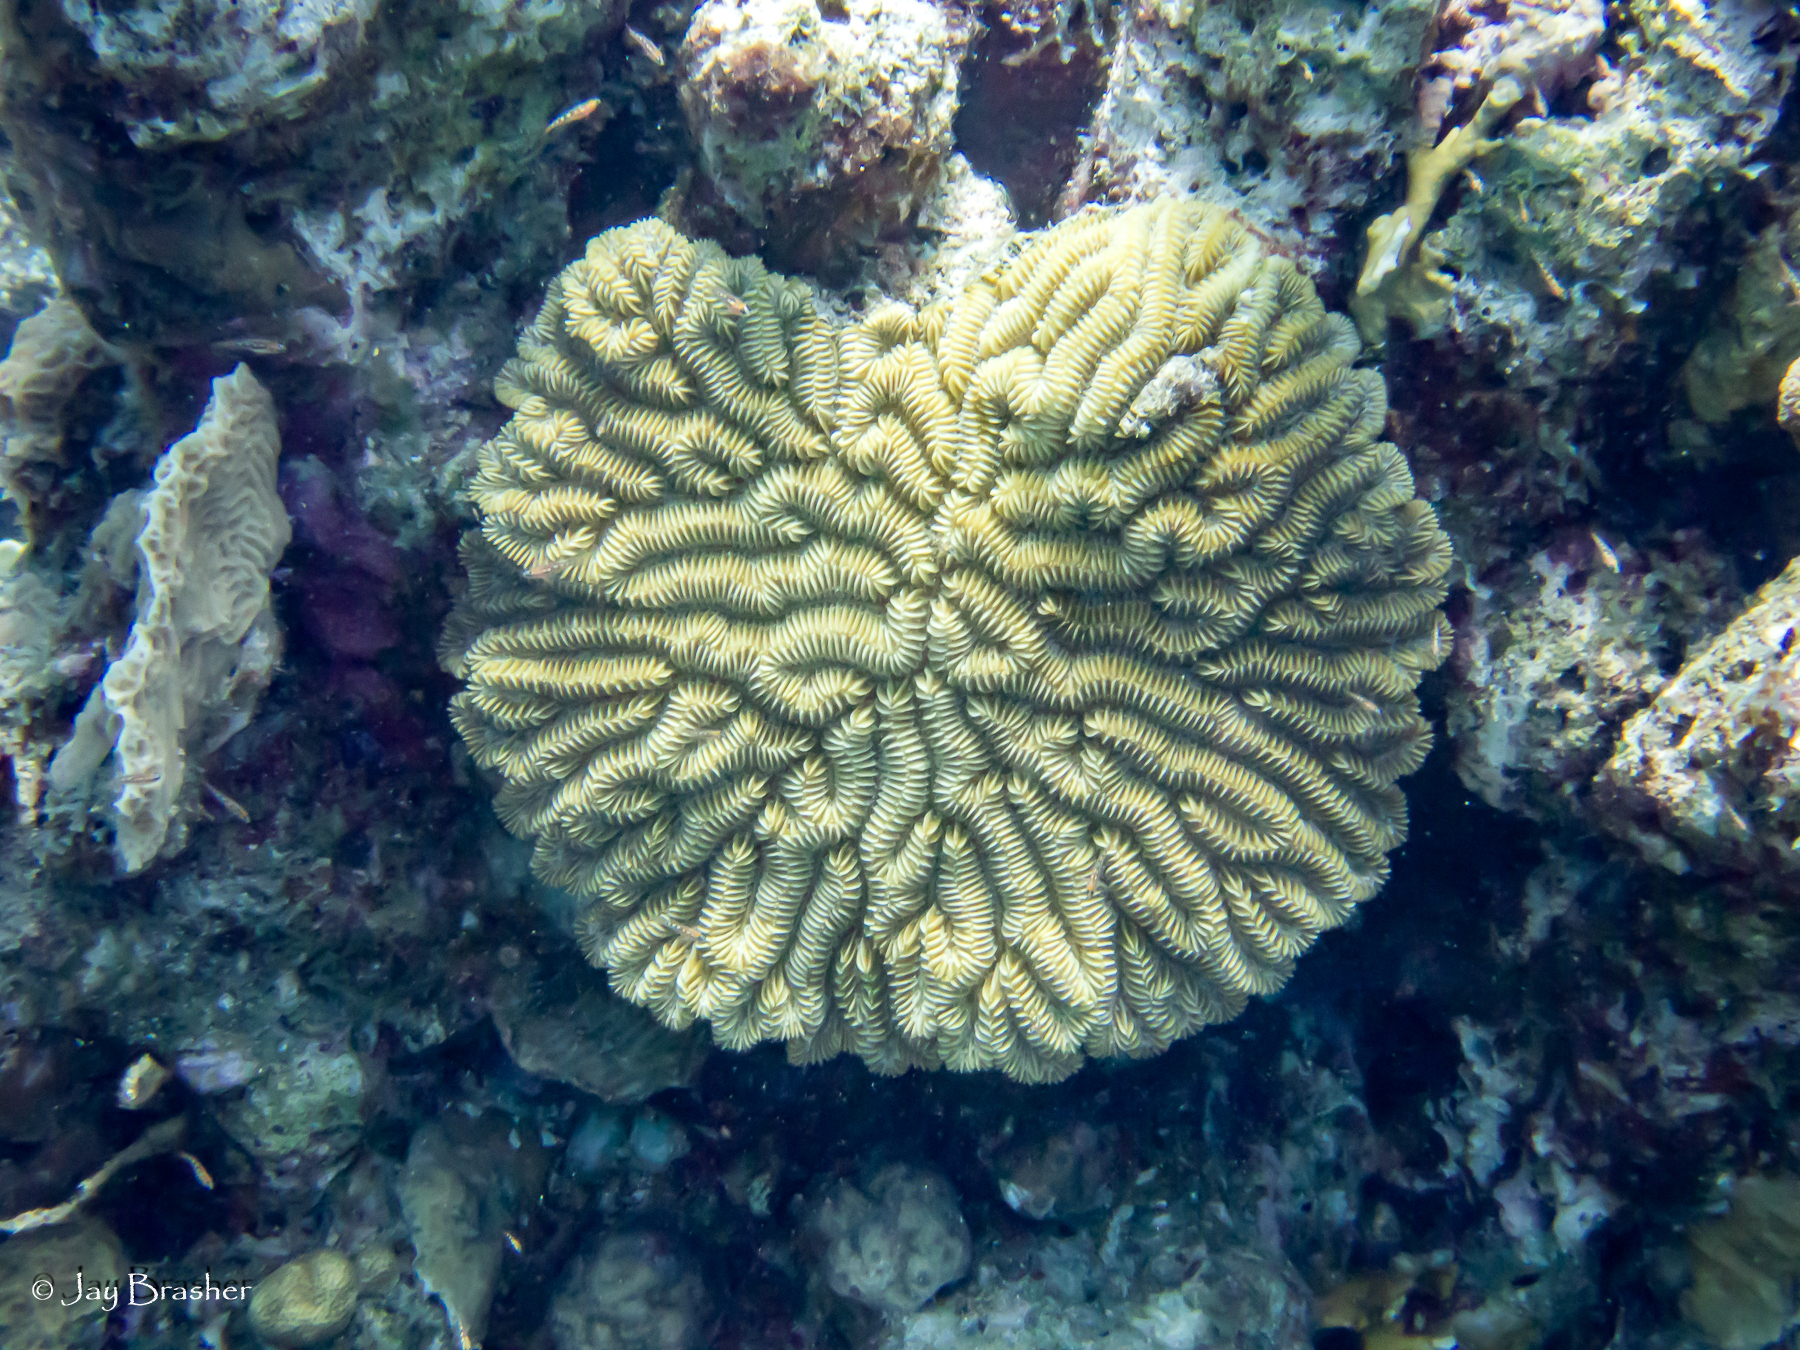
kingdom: Animalia
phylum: Cnidaria
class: Anthozoa
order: Scleractinia
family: Meandrinidae
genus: Meandrina
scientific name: Meandrina meandrites
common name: Maze coral
